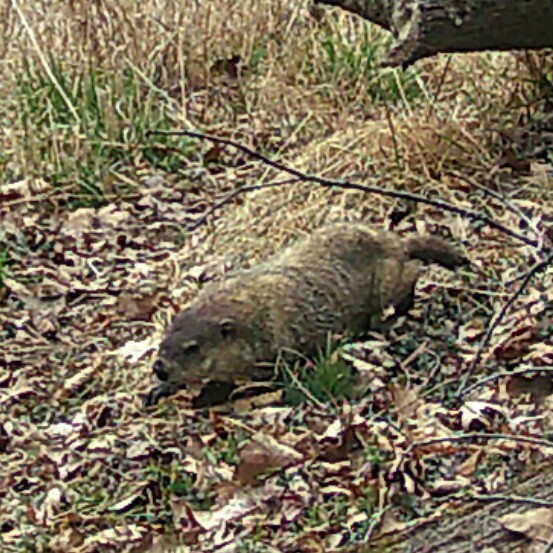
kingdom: Animalia
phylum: Chordata
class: Mammalia
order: Rodentia
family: Sciuridae
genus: Marmota
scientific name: Marmota monax
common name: Groundhog
